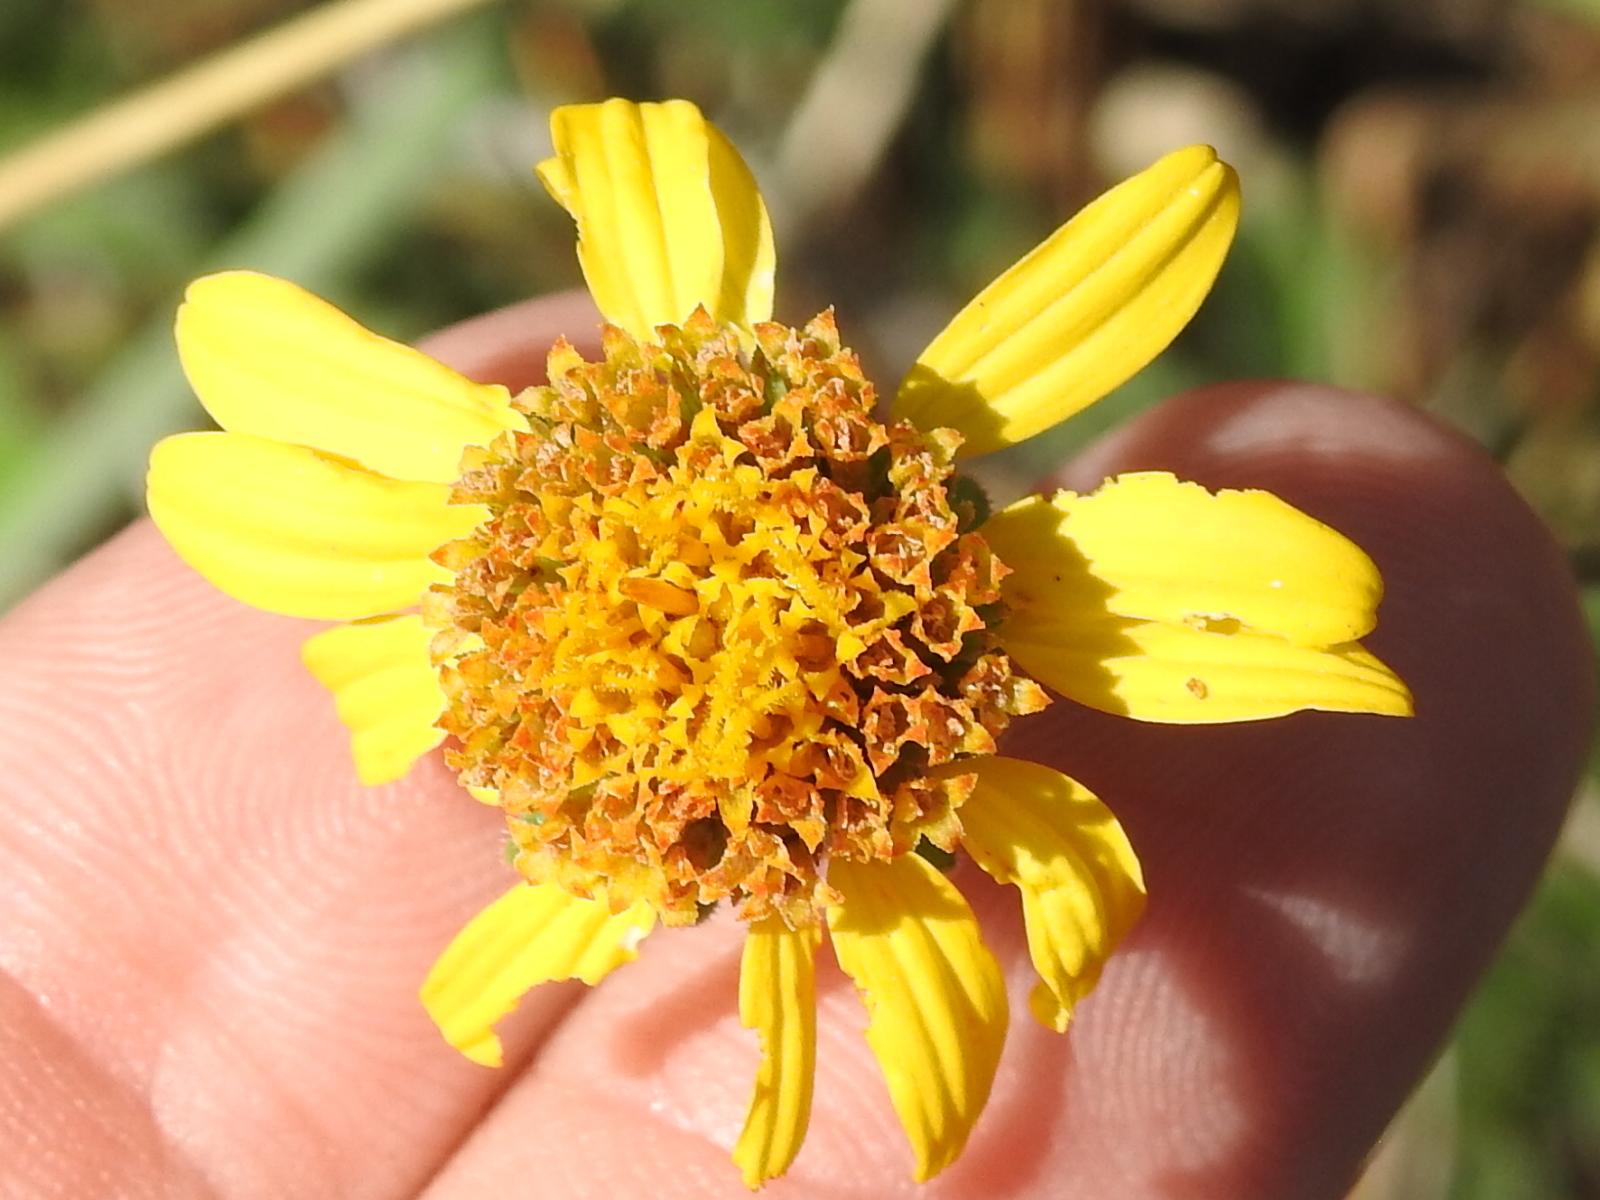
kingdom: Plantae
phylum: Tracheophyta
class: Magnoliopsida
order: Asterales
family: Asteraceae
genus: Simsia
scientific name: Simsia calva
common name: Awnless bush-sunflower
